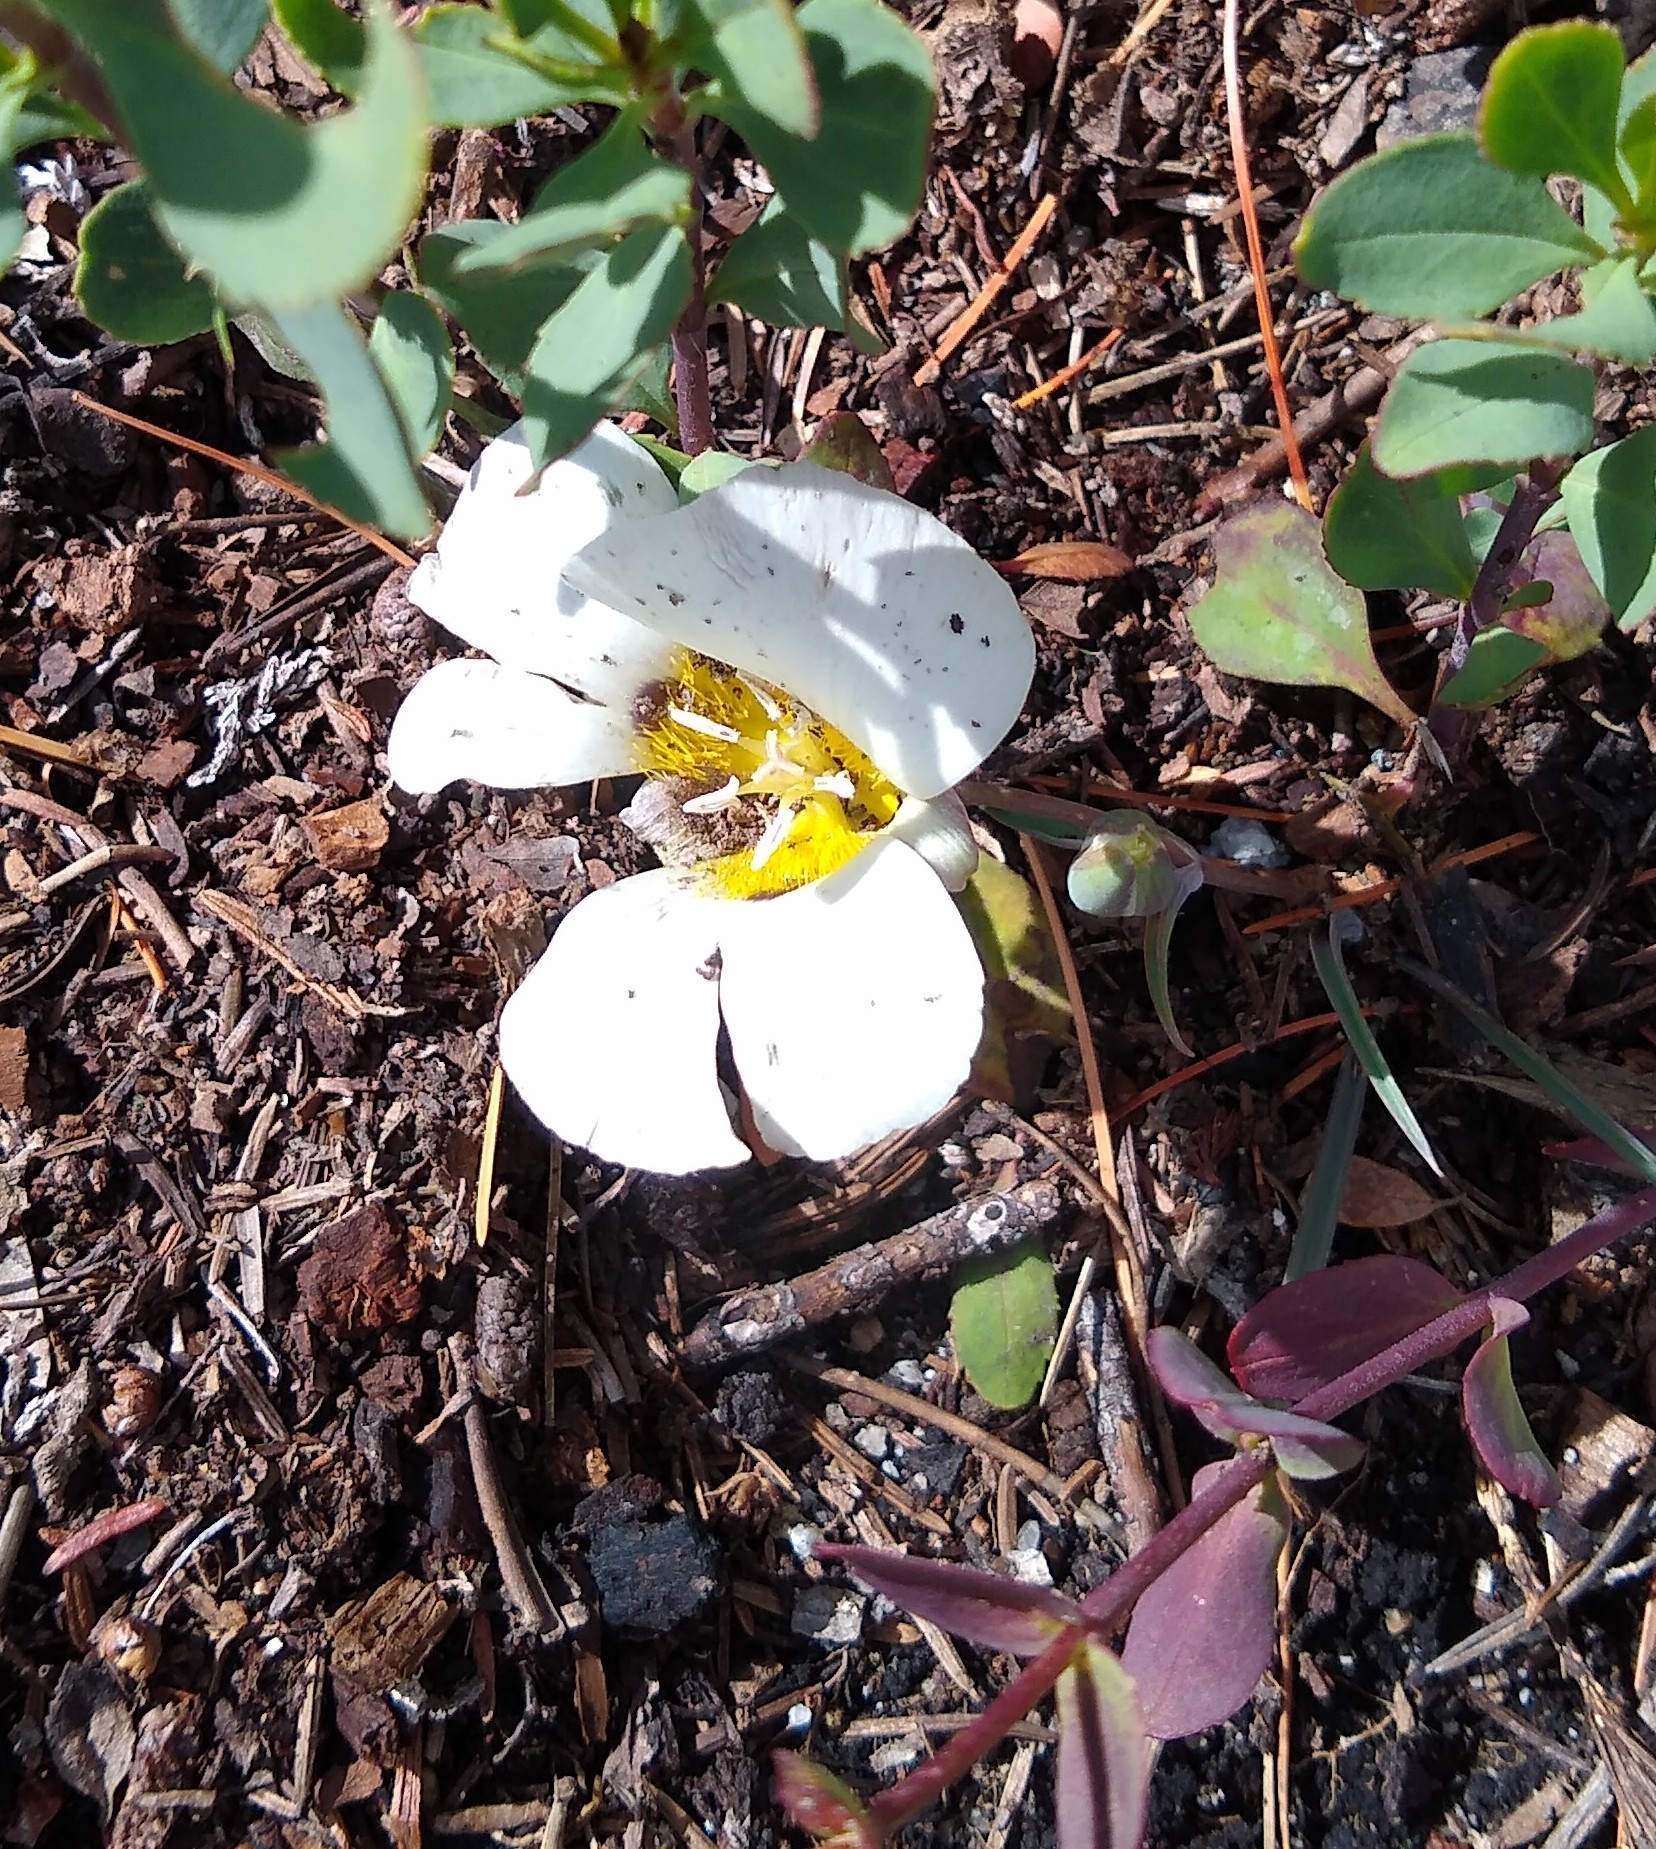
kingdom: Plantae
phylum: Tracheophyta
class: Liliopsida
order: Liliales
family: Liliaceae
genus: Calochortus
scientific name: Calochortus leichtlinii
